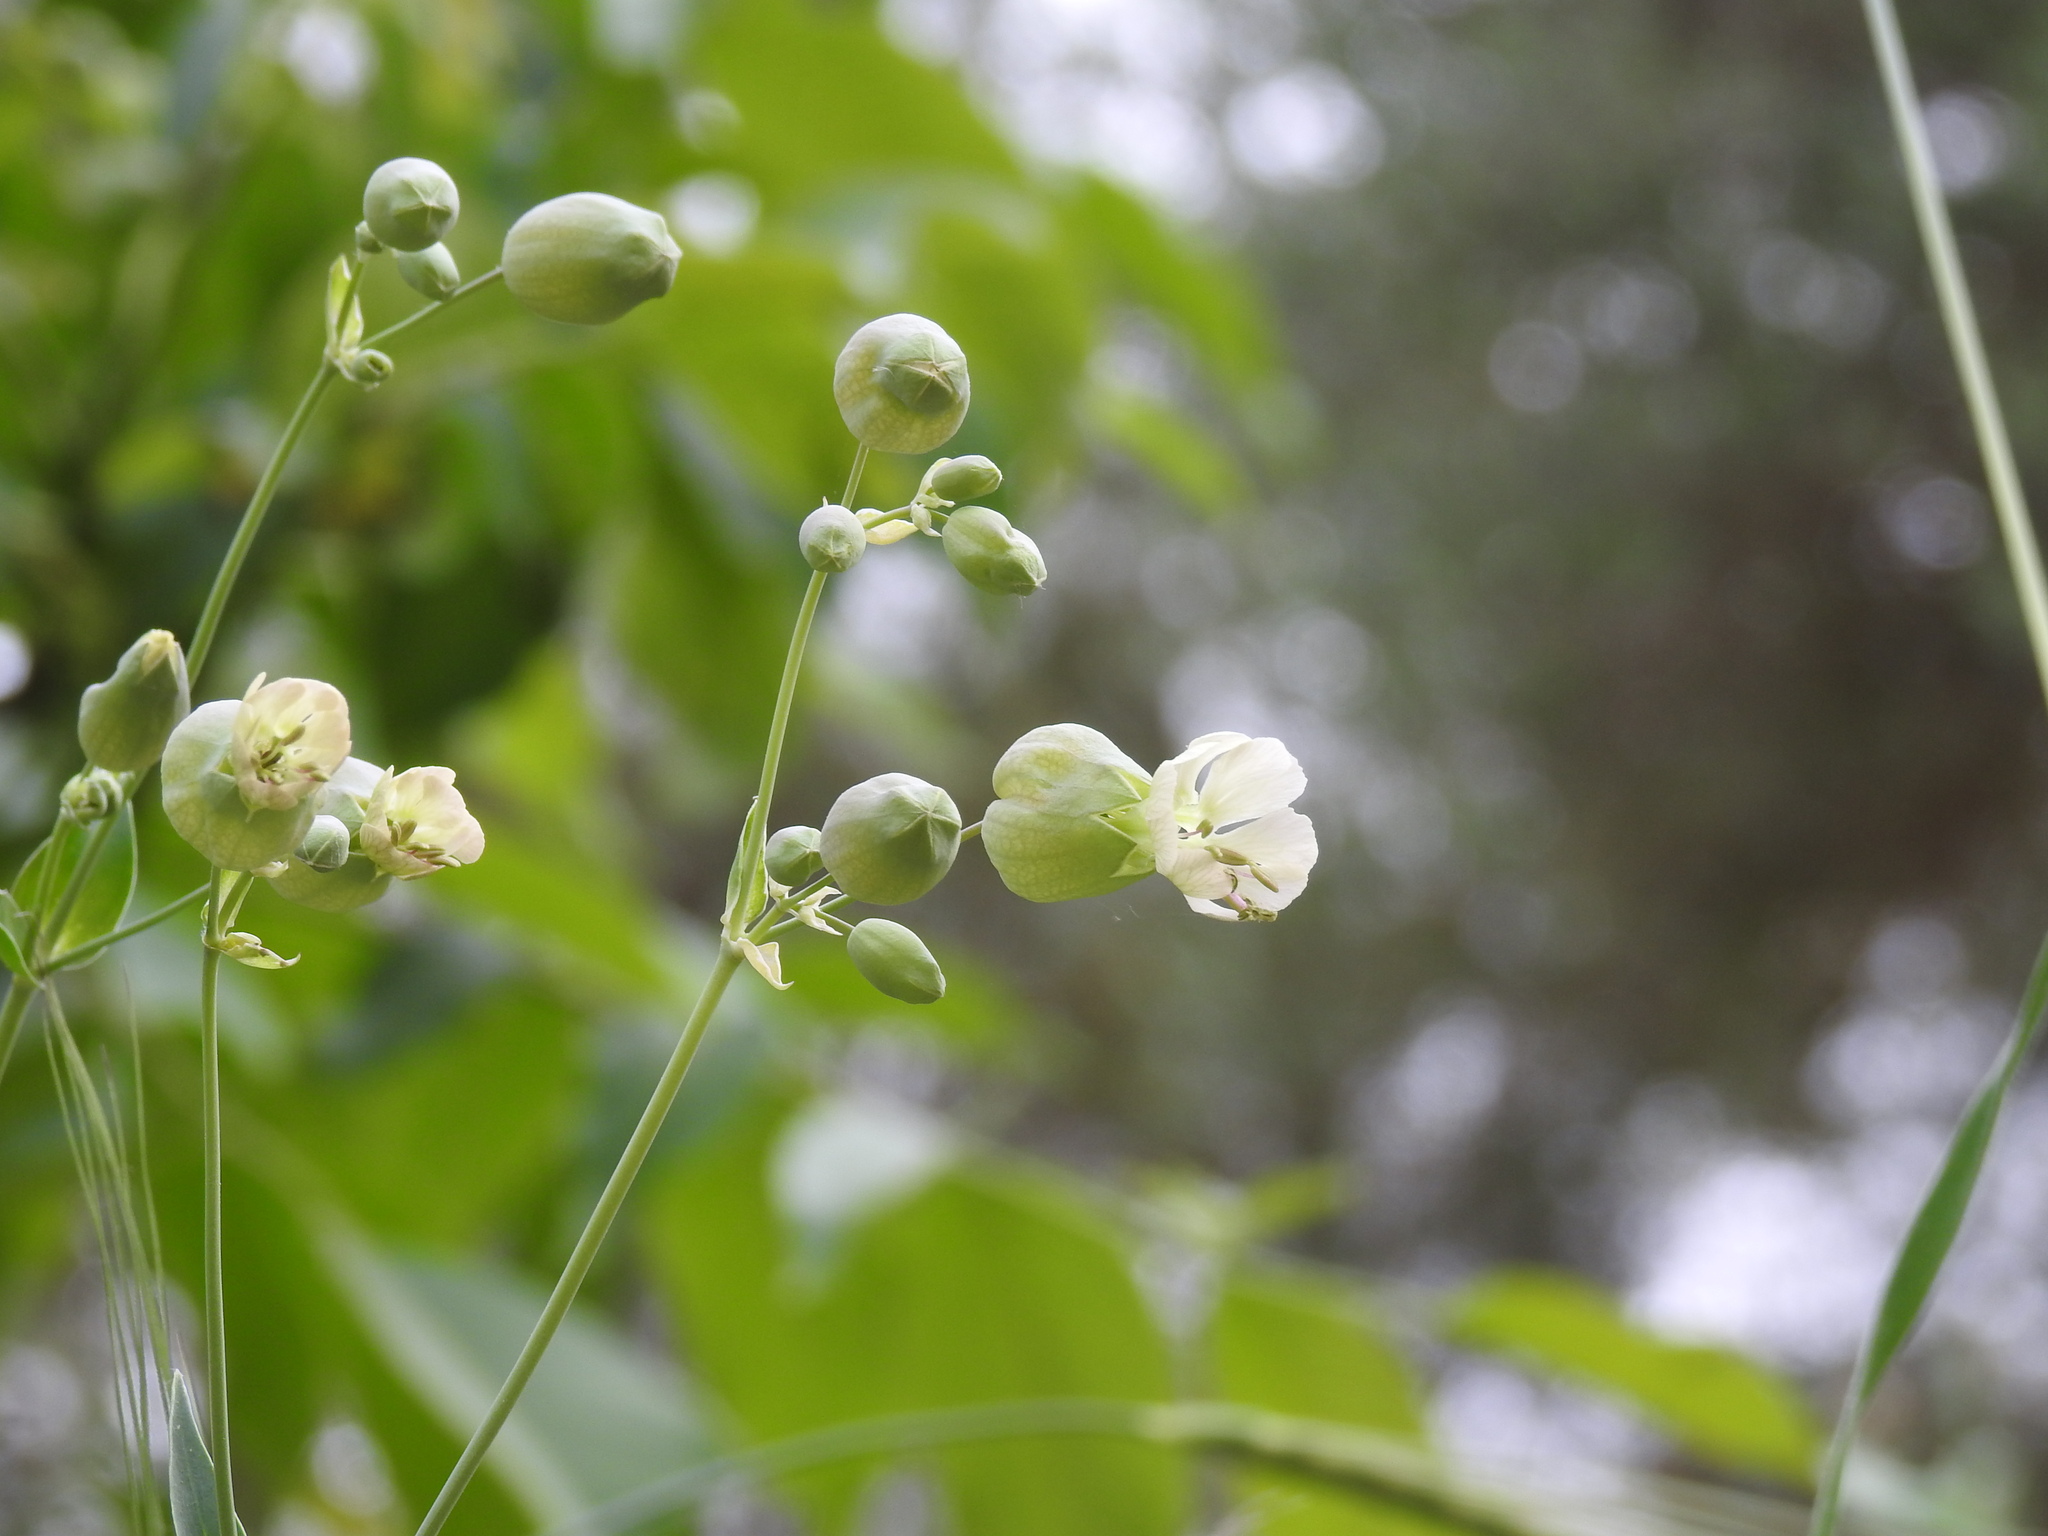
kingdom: Plantae
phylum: Tracheophyta
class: Magnoliopsida
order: Caryophyllales
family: Caryophyllaceae
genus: Silene
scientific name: Silene vulgaris
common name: Bladder campion
